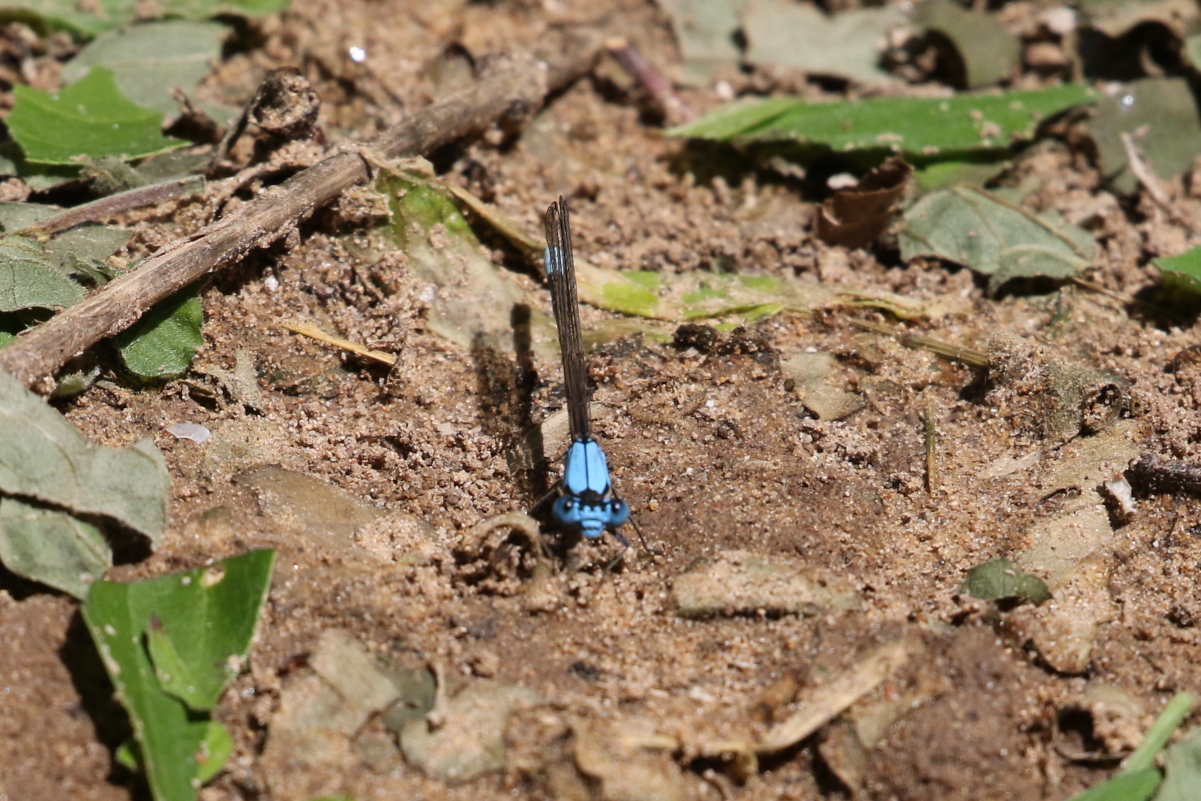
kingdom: Animalia
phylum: Arthropoda
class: Insecta
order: Odonata
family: Coenagrionidae
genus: Argia
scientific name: Argia apicalis
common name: Blue-fronted dancer
